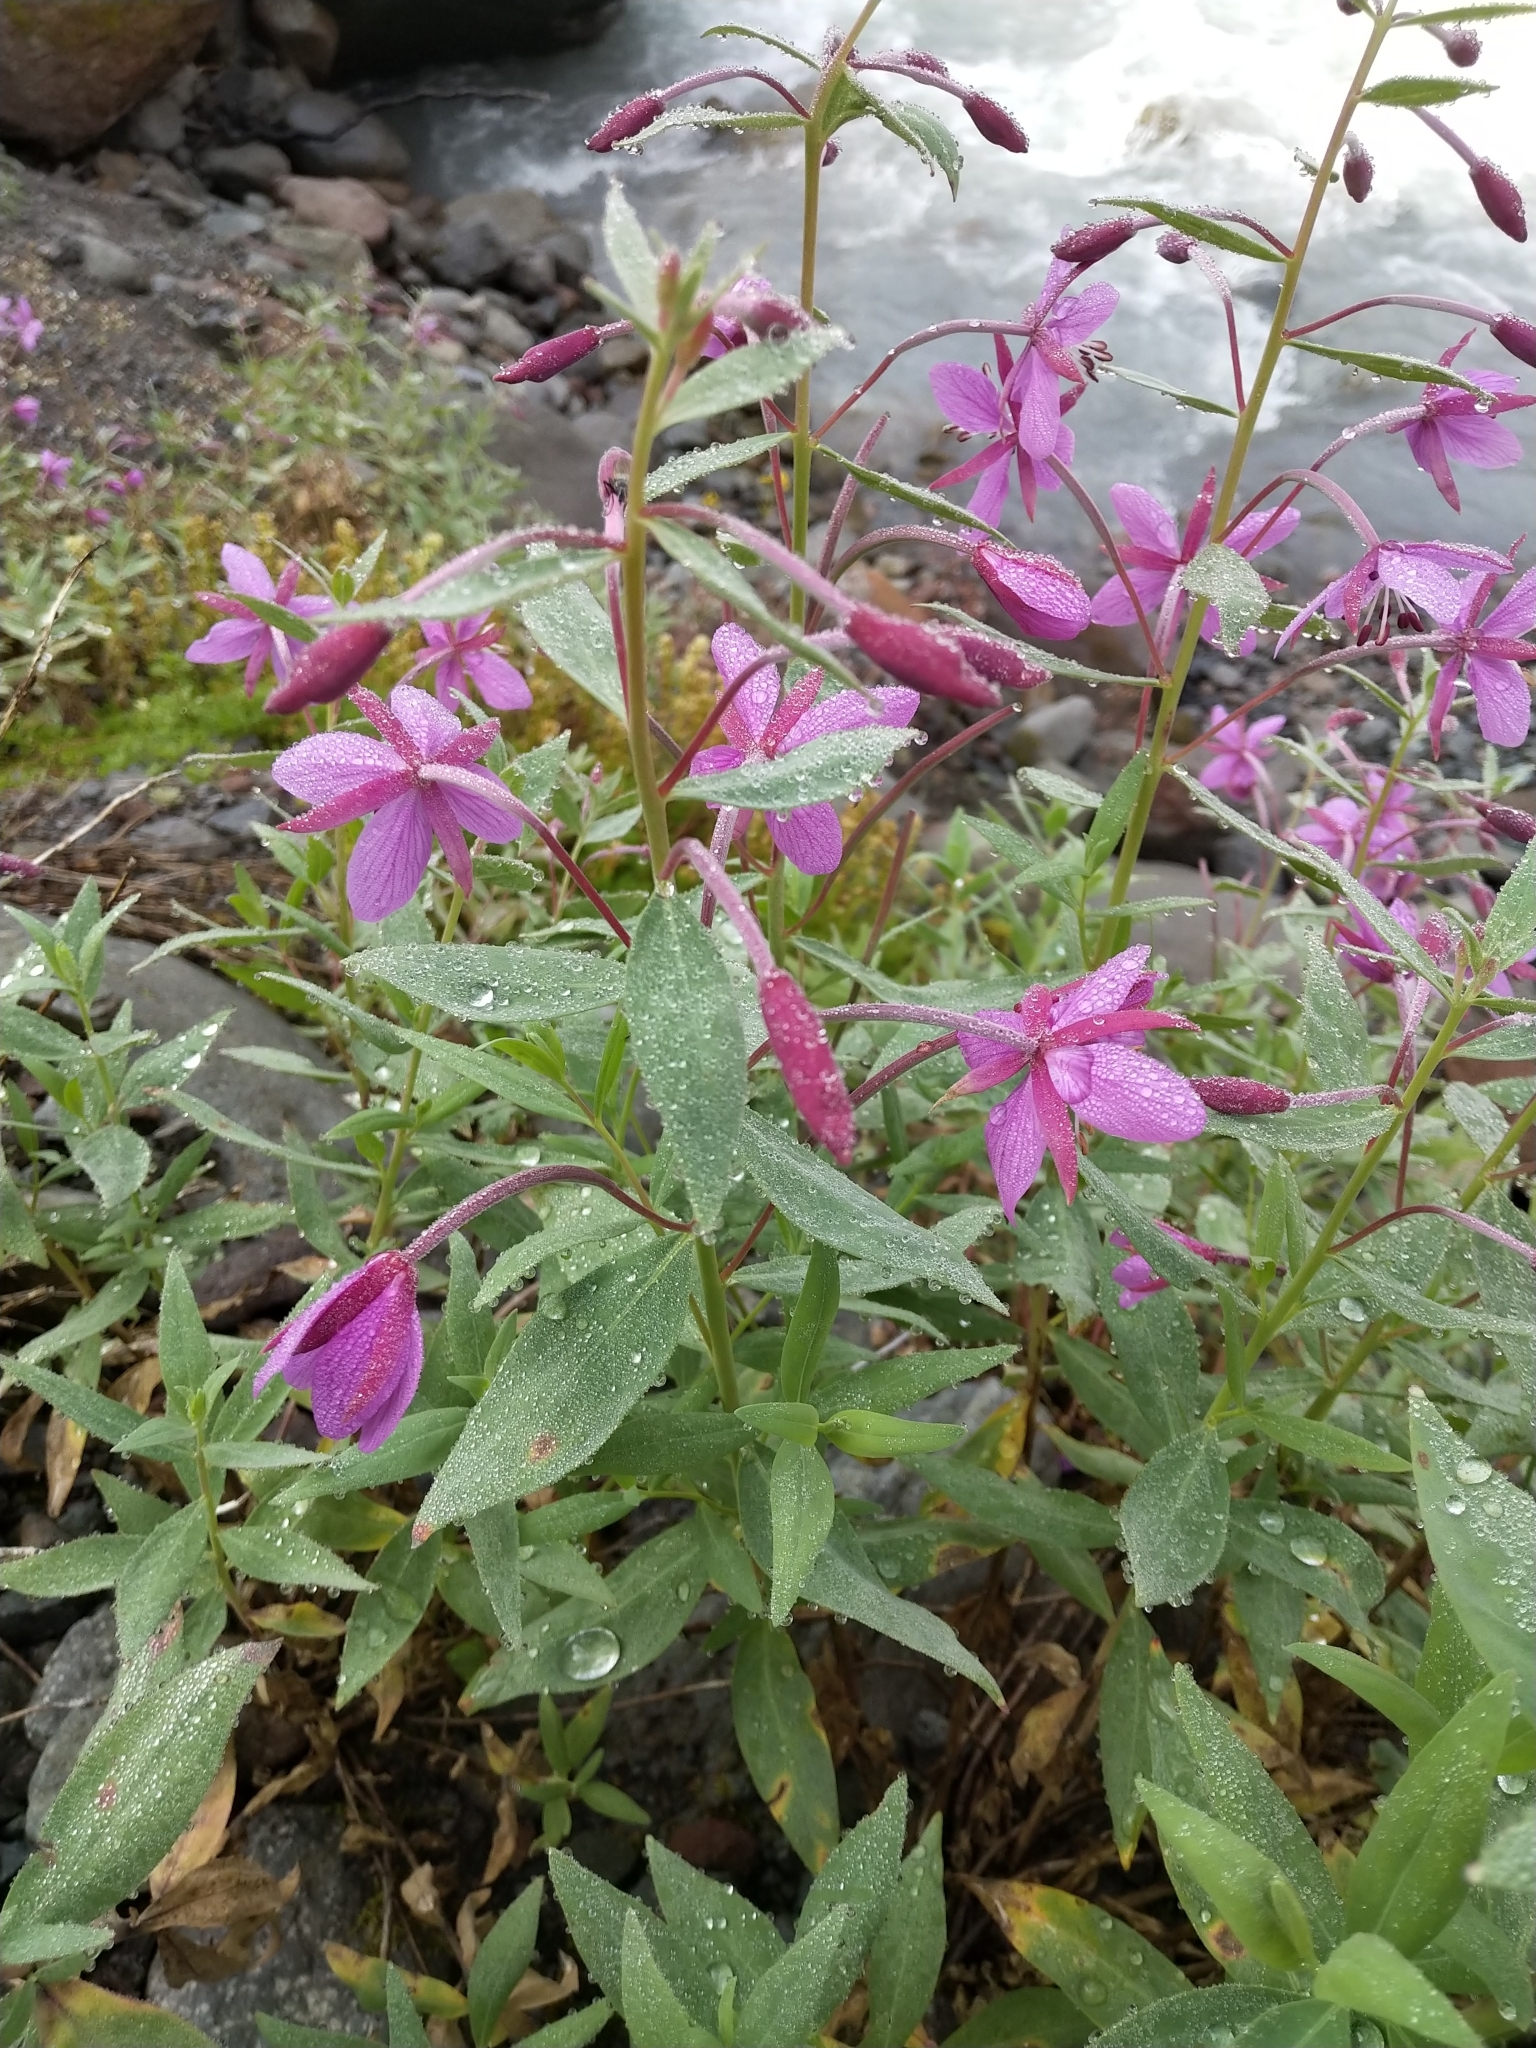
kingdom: Plantae
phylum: Tracheophyta
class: Magnoliopsida
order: Myrtales
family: Onagraceae
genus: Chamaenerion
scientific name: Chamaenerion latifolium
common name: Dwarf fireweed
